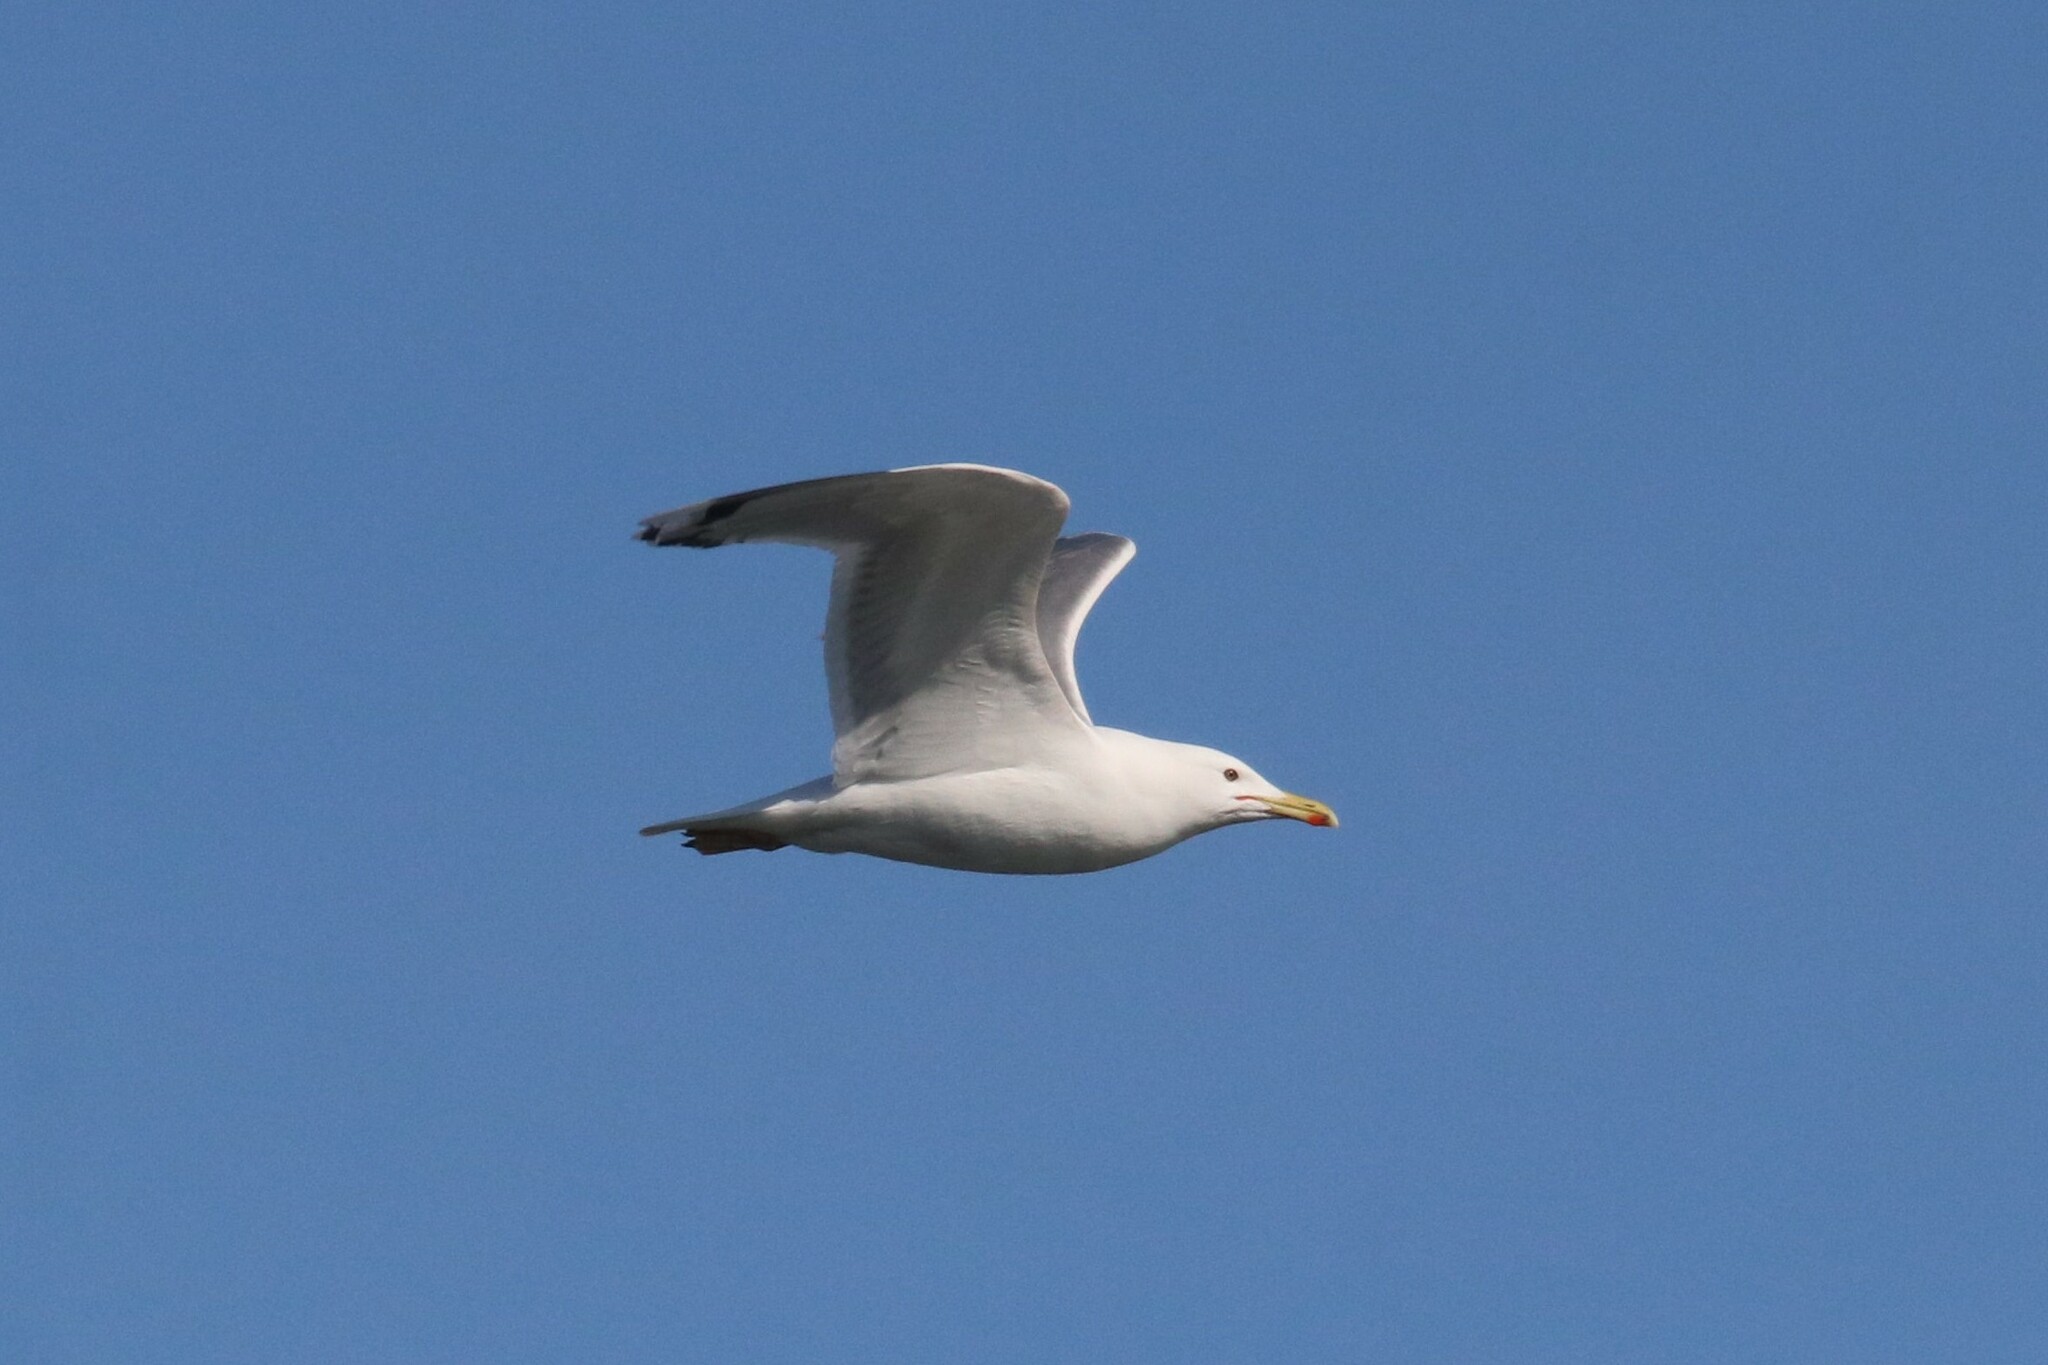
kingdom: Animalia
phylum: Chordata
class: Aves
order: Charadriiformes
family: Laridae
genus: Larus
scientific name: Larus cachinnans
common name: Caspian gull
